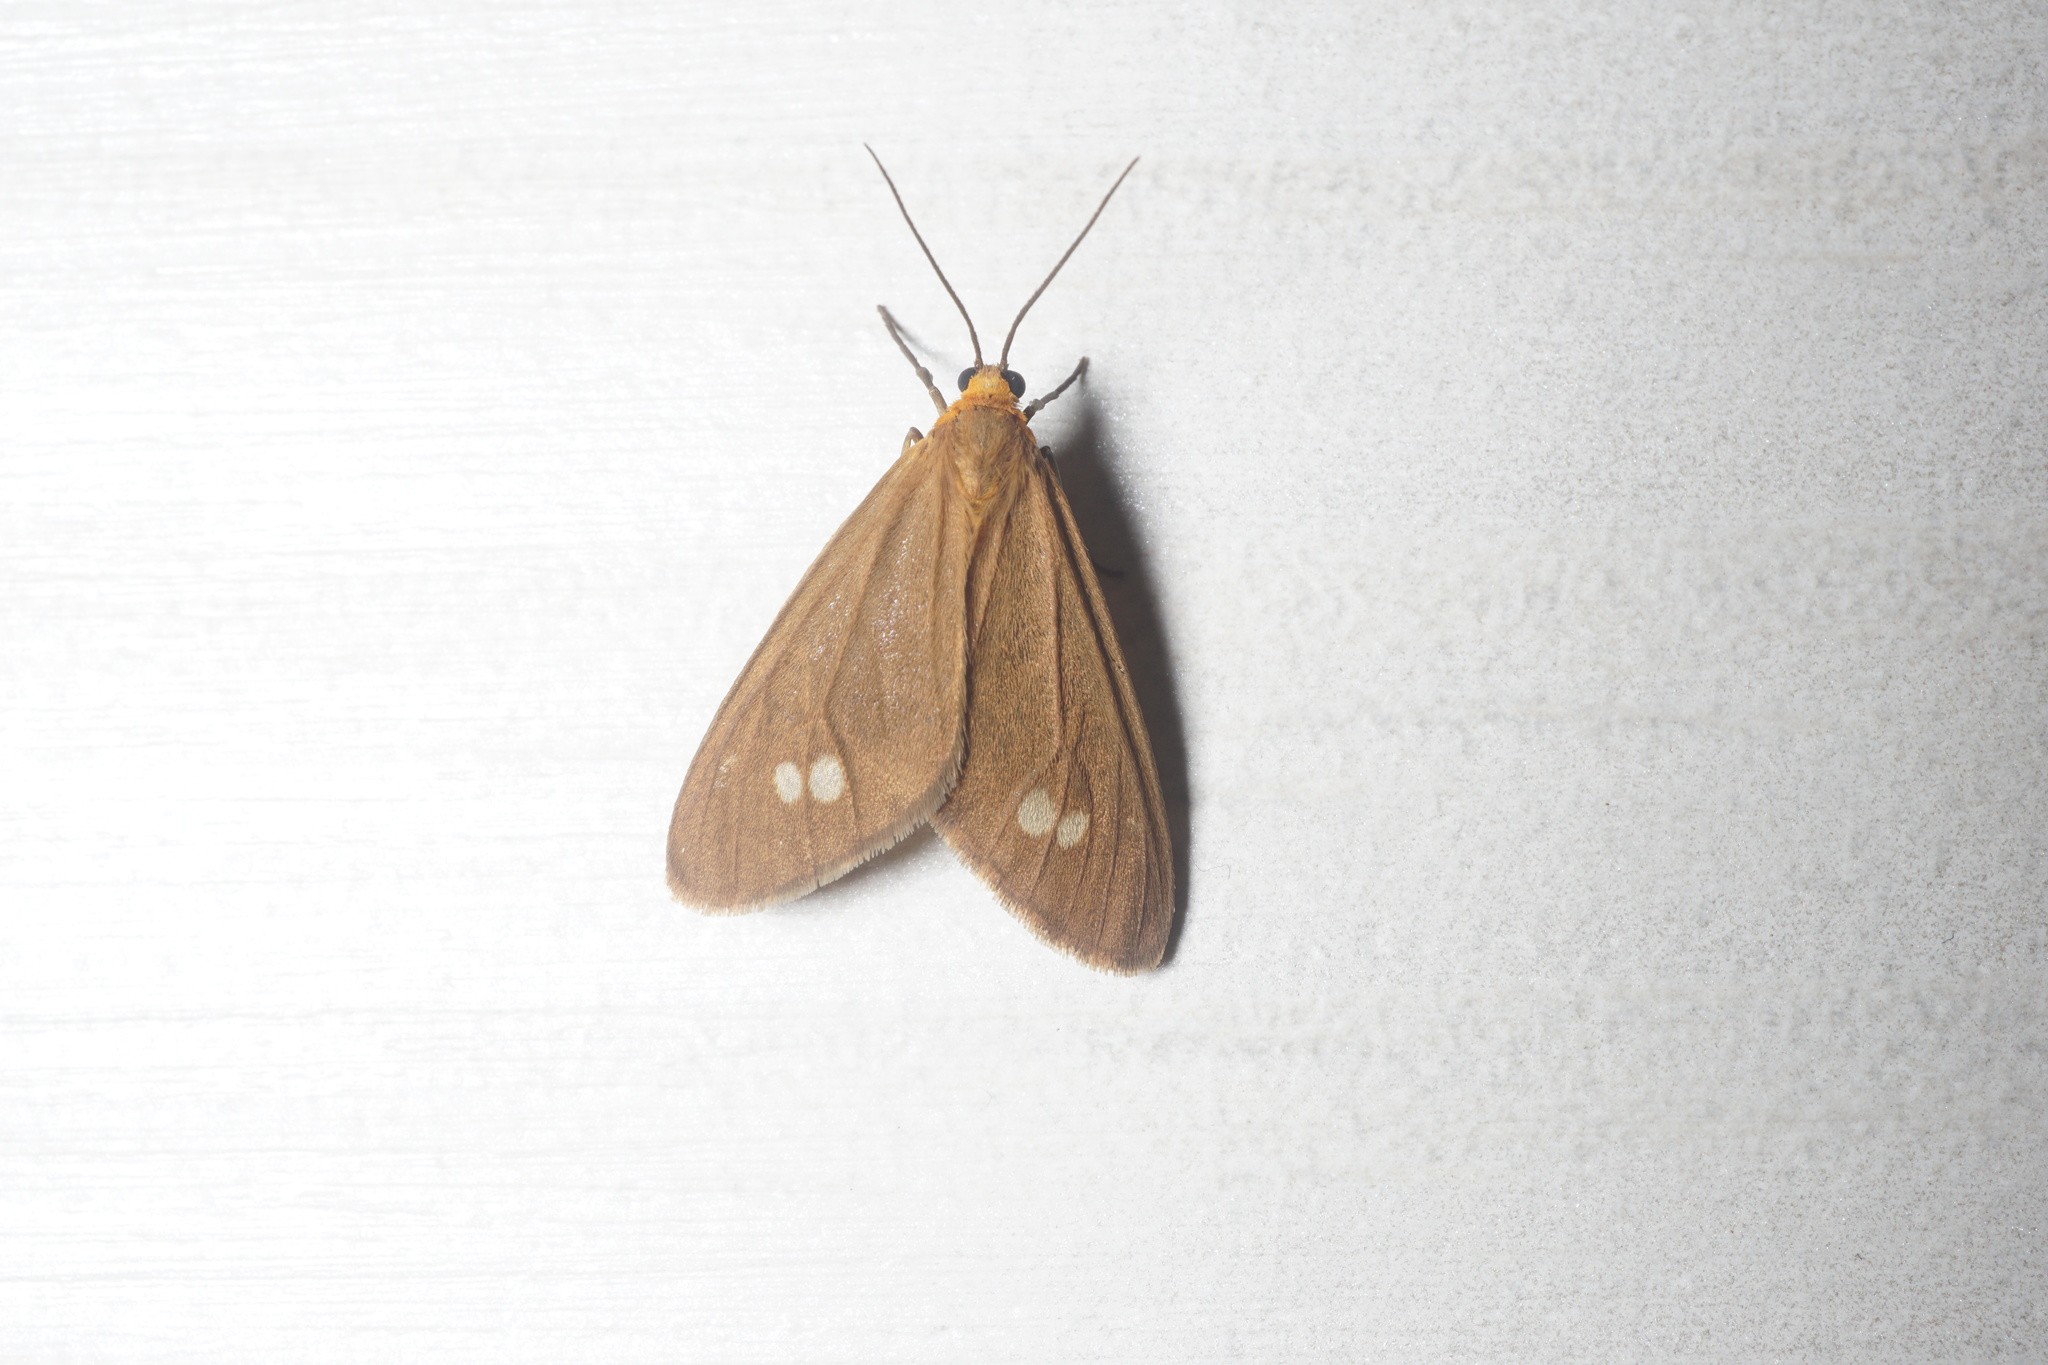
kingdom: Animalia
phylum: Arthropoda
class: Insecta
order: Lepidoptera
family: Erebidae
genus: Dysauxes
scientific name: Dysauxes ancilla
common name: The handmaid
